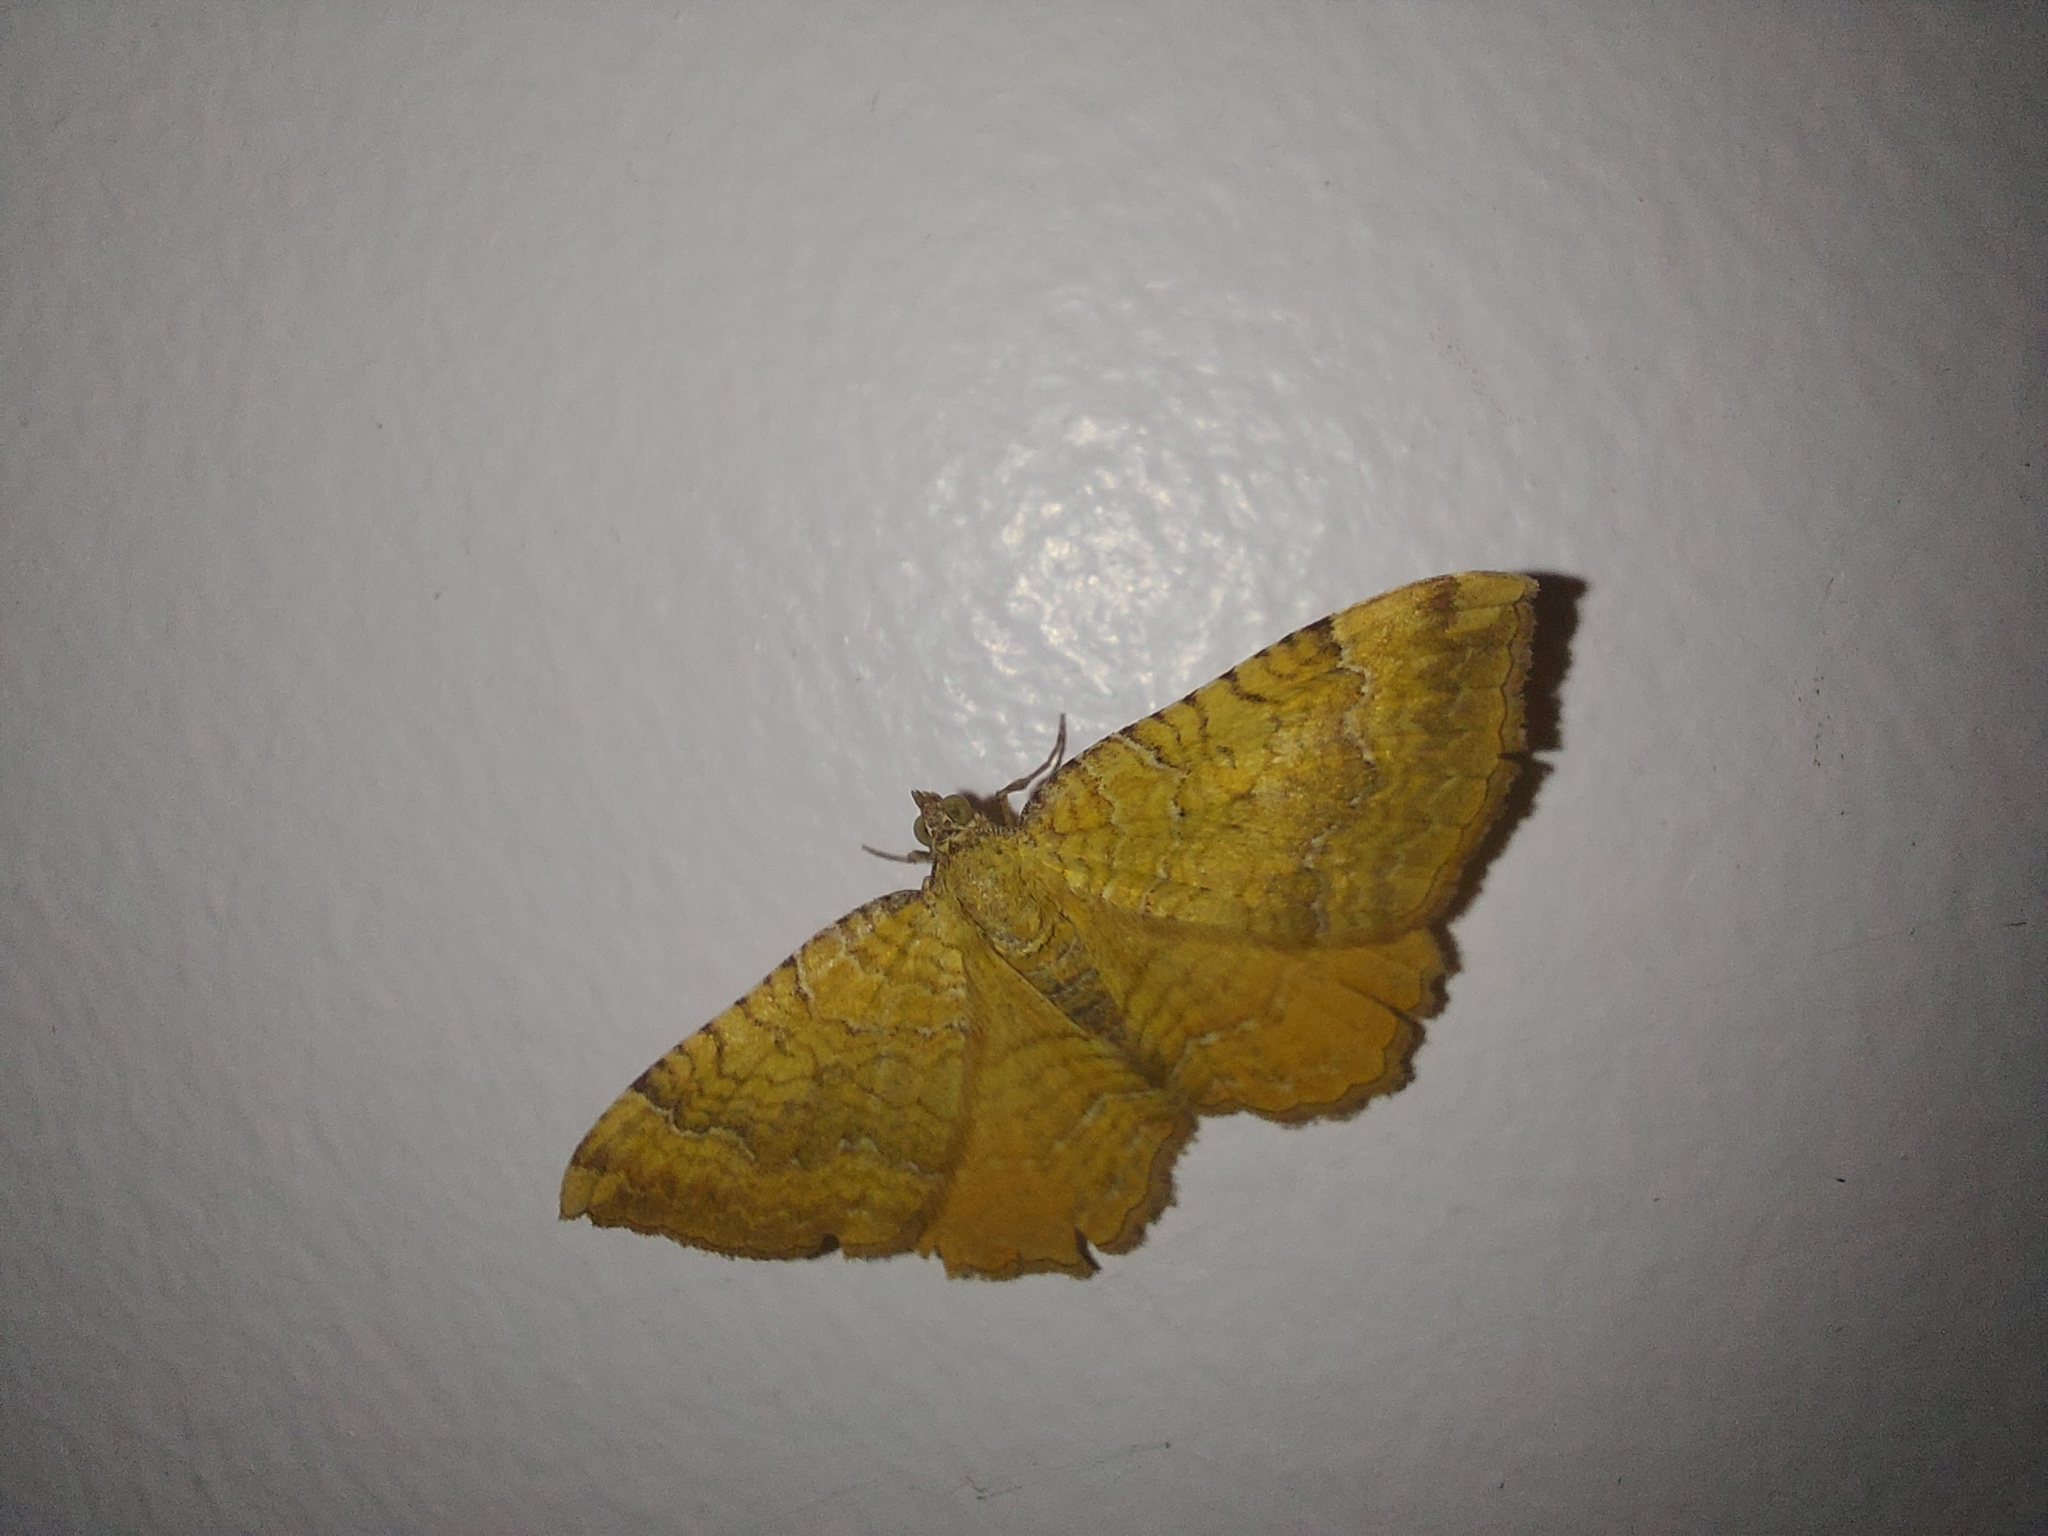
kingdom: Animalia
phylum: Arthropoda
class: Insecta
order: Lepidoptera
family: Geometridae
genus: Camptogramma
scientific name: Camptogramma bilineata
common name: Yellow shell
